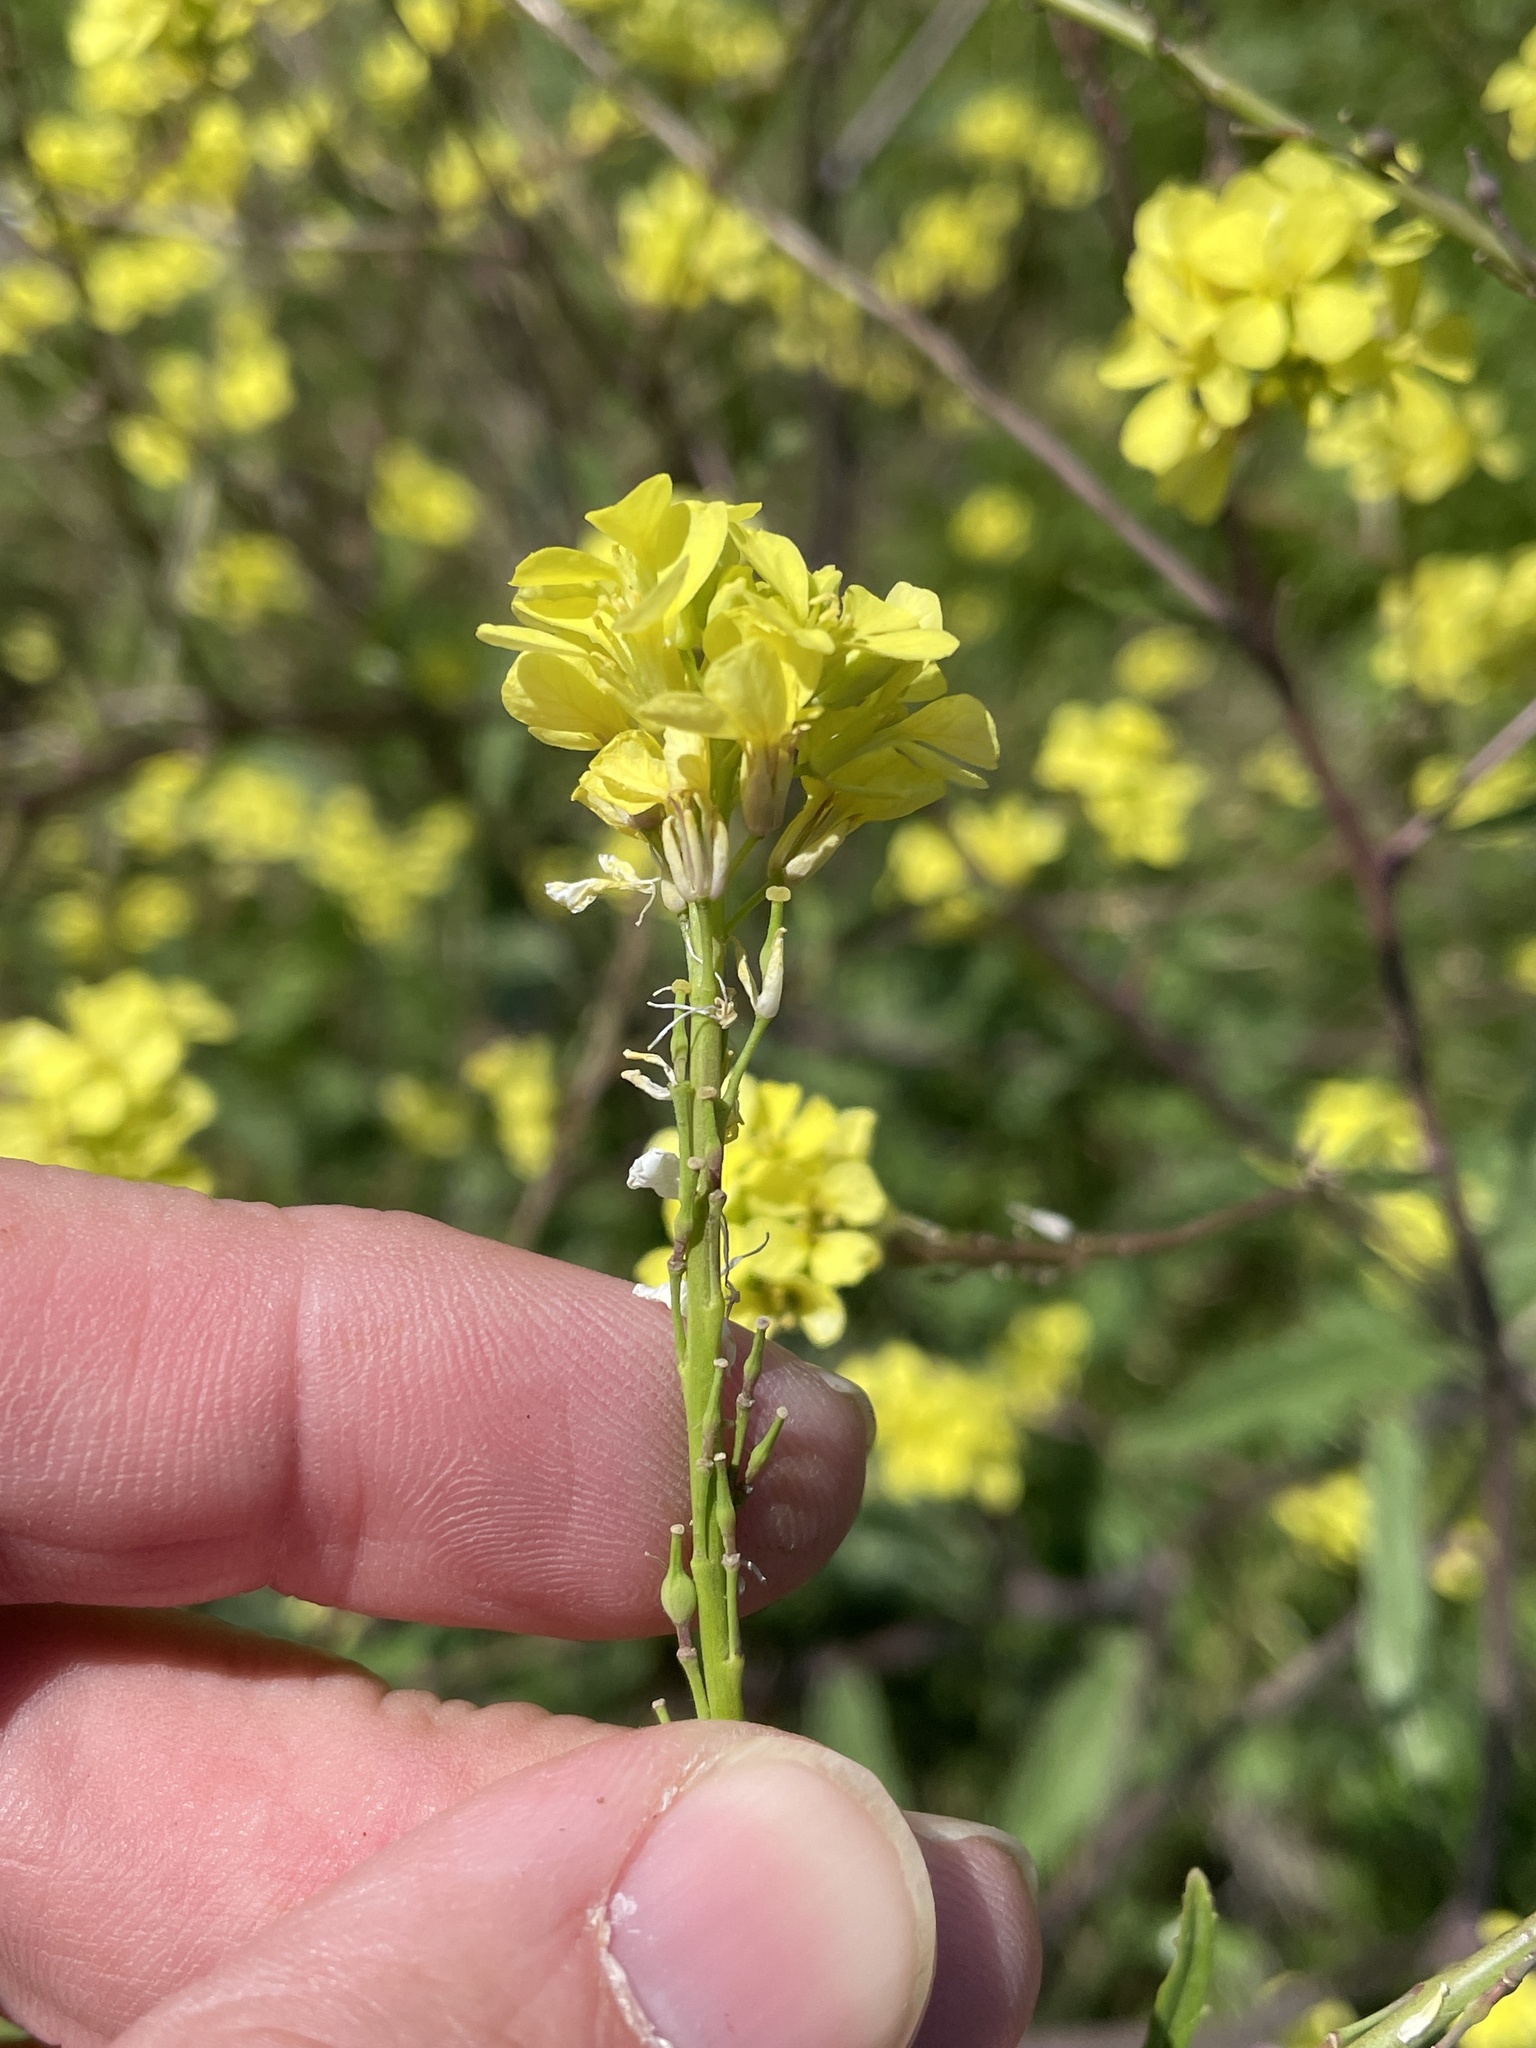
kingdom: Plantae
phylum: Tracheophyta
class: Magnoliopsida
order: Brassicales
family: Brassicaceae
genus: Rapistrum
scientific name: Rapistrum rugosum
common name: Annual bastardcabbage
